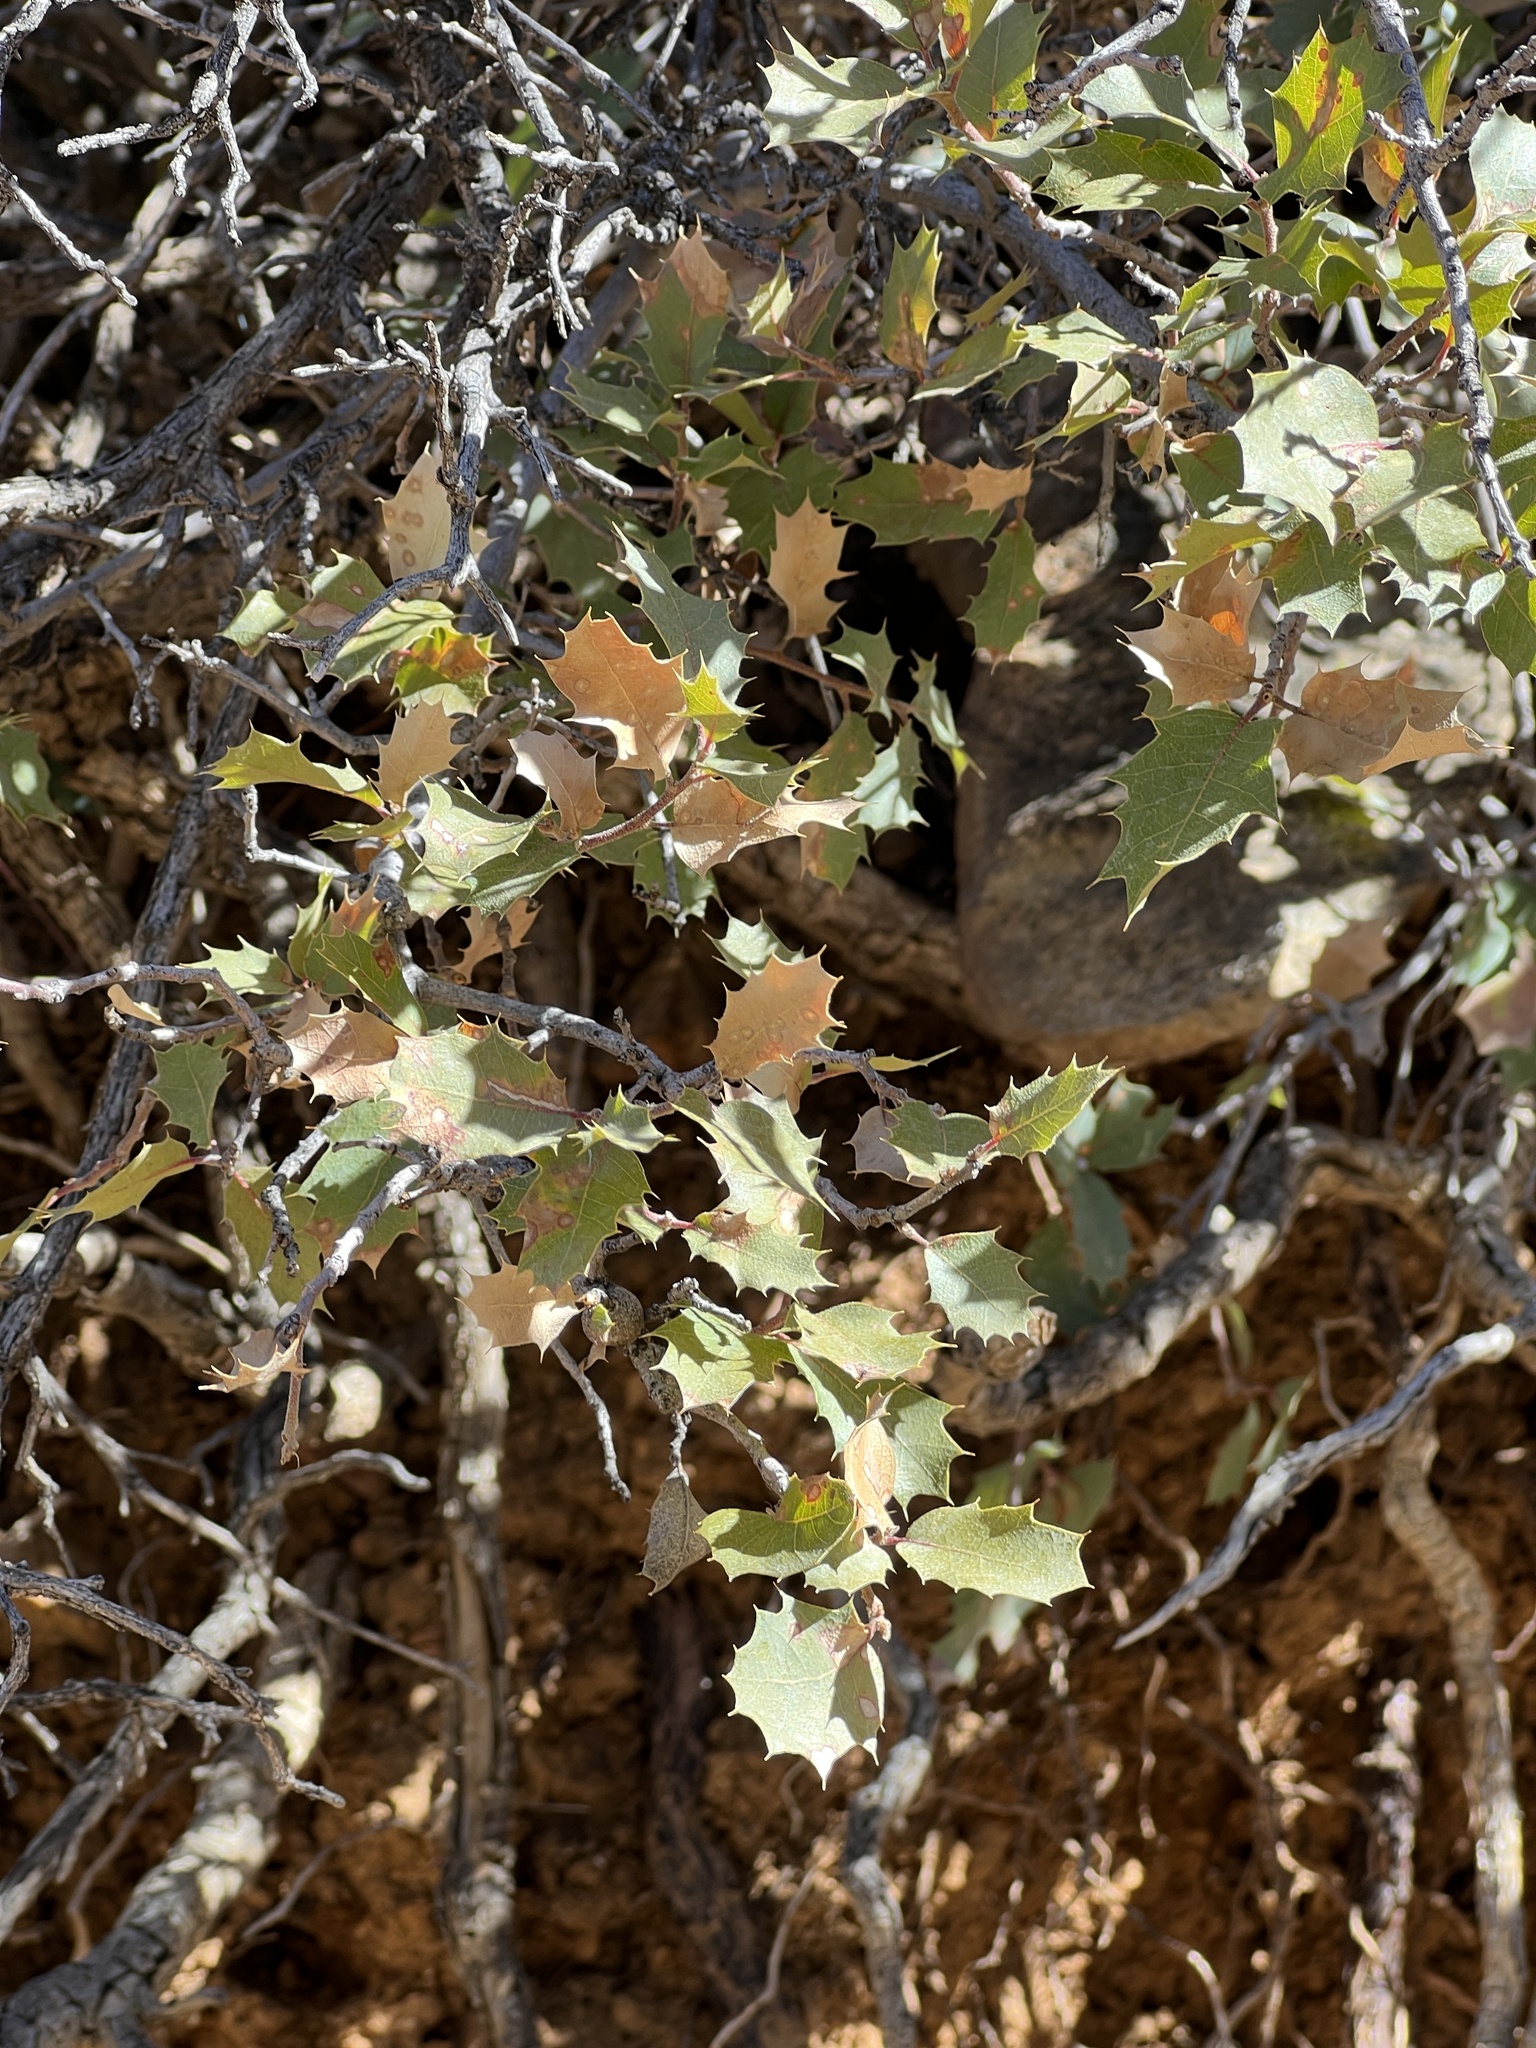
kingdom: Plantae
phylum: Tracheophyta
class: Magnoliopsida
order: Fagales
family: Fagaceae
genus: Quercus
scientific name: Quercus turbinella
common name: Sonoran scrub oak
